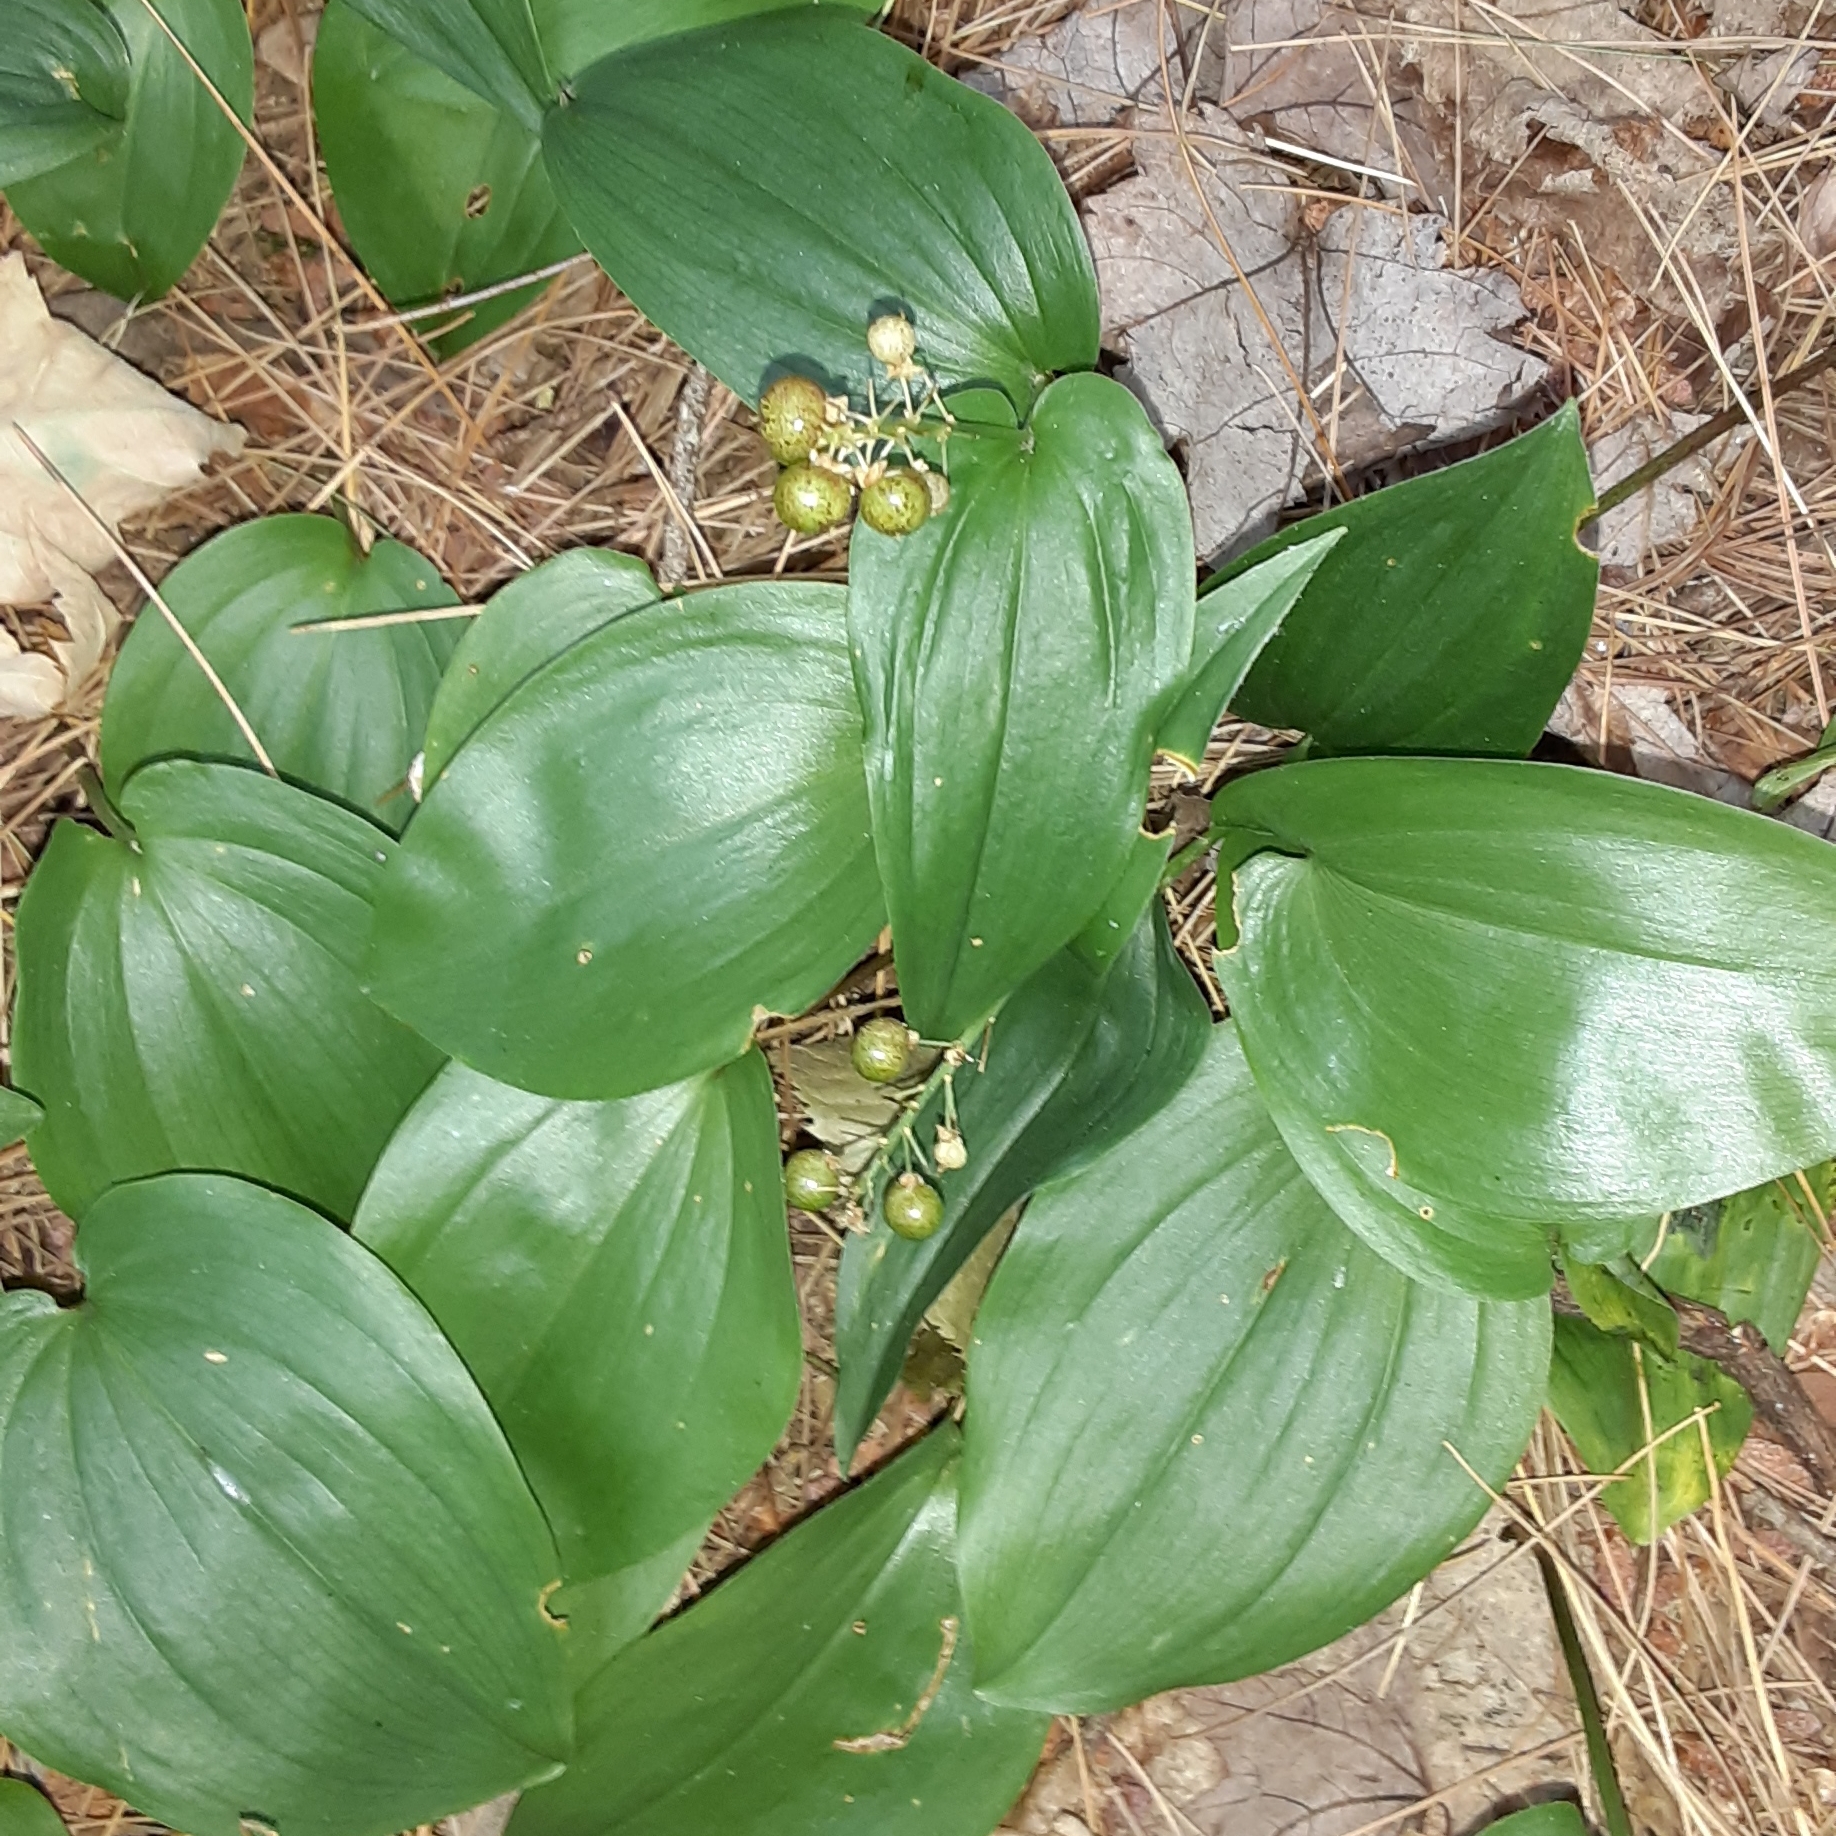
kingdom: Plantae
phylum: Tracheophyta
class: Liliopsida
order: Asparagales
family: Asparagaceae
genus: Maianthemum
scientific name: Maianthemum canadense
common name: False lily-of-the-valley
